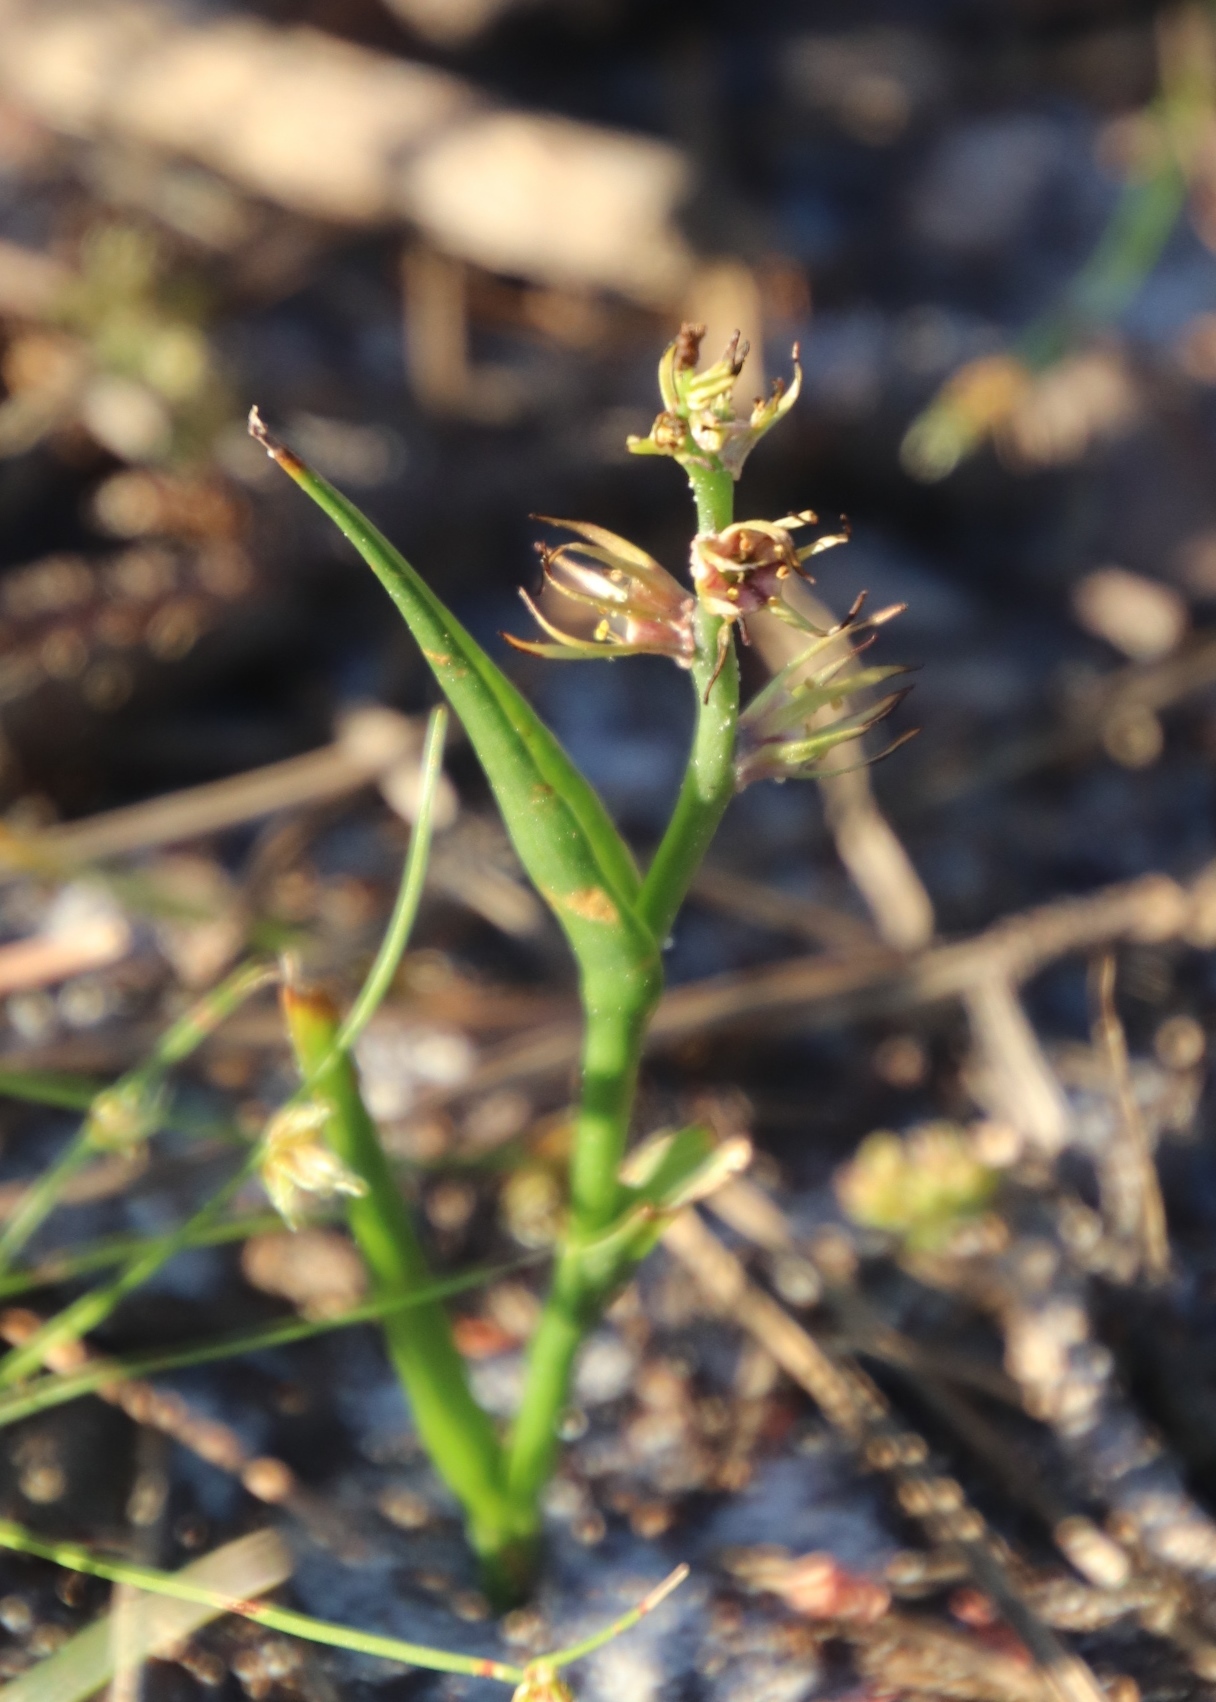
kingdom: Plantae
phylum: Tracheophyta
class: Liliopsida
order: Liliales
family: Colchicaceae
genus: Wurmbea
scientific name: Wurmbea monopetala
